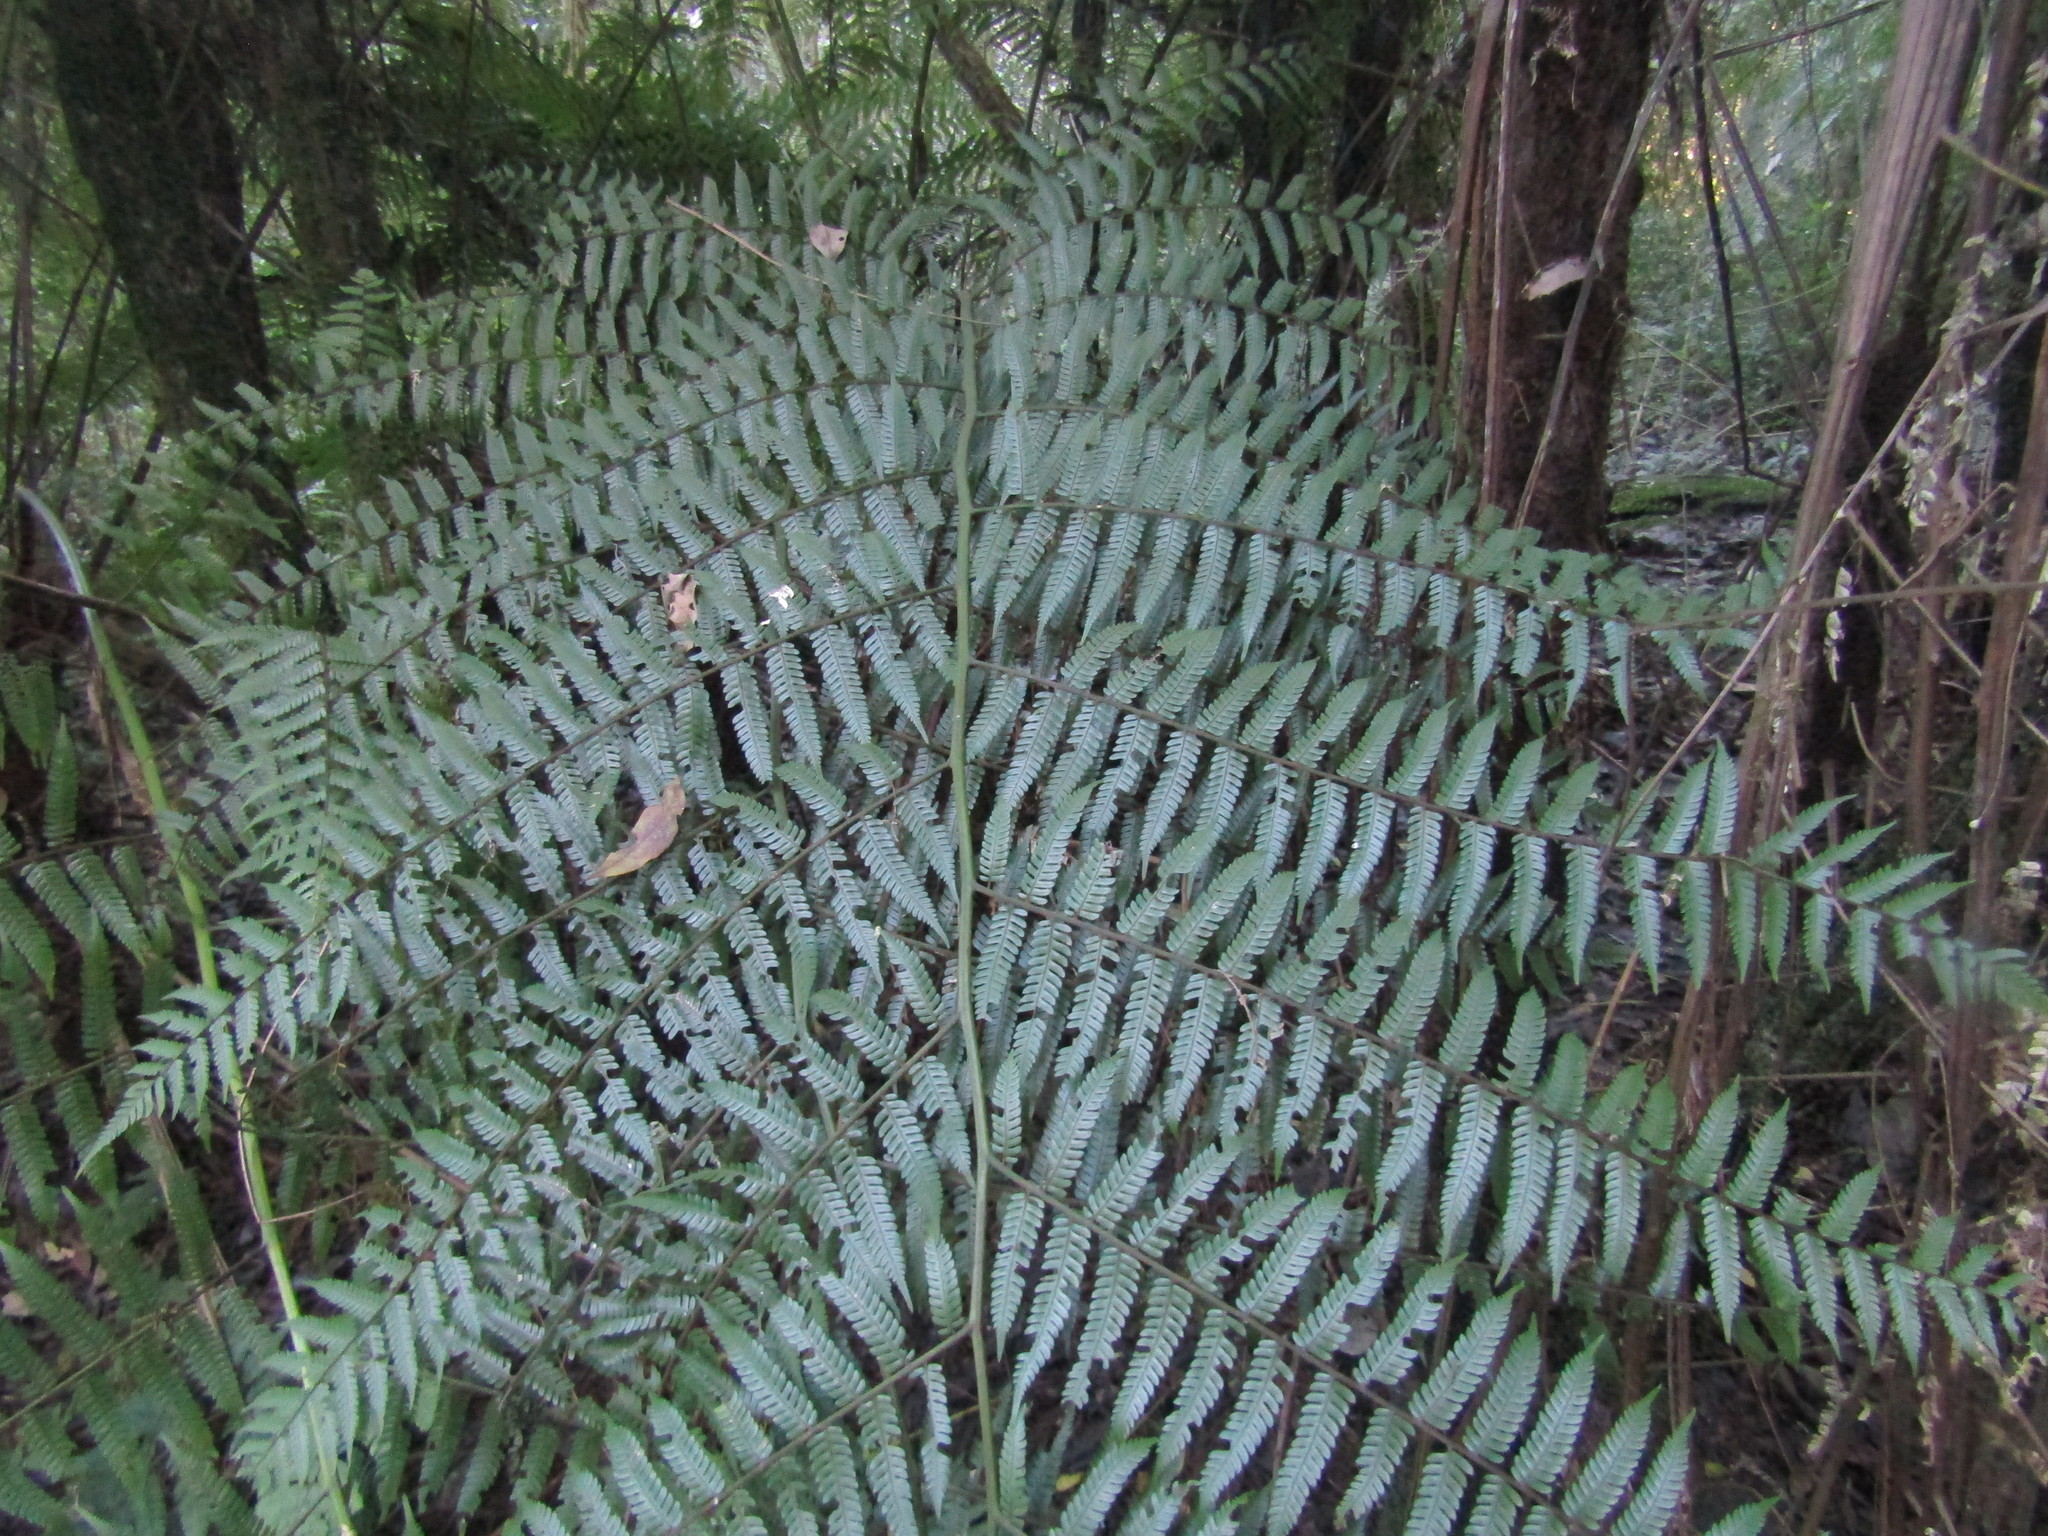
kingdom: Plantae
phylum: Tracheophyta
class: Polypodiopsida
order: Cyatheales
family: Cyatheaceae
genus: Alsophila
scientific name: Alsophila setosa
